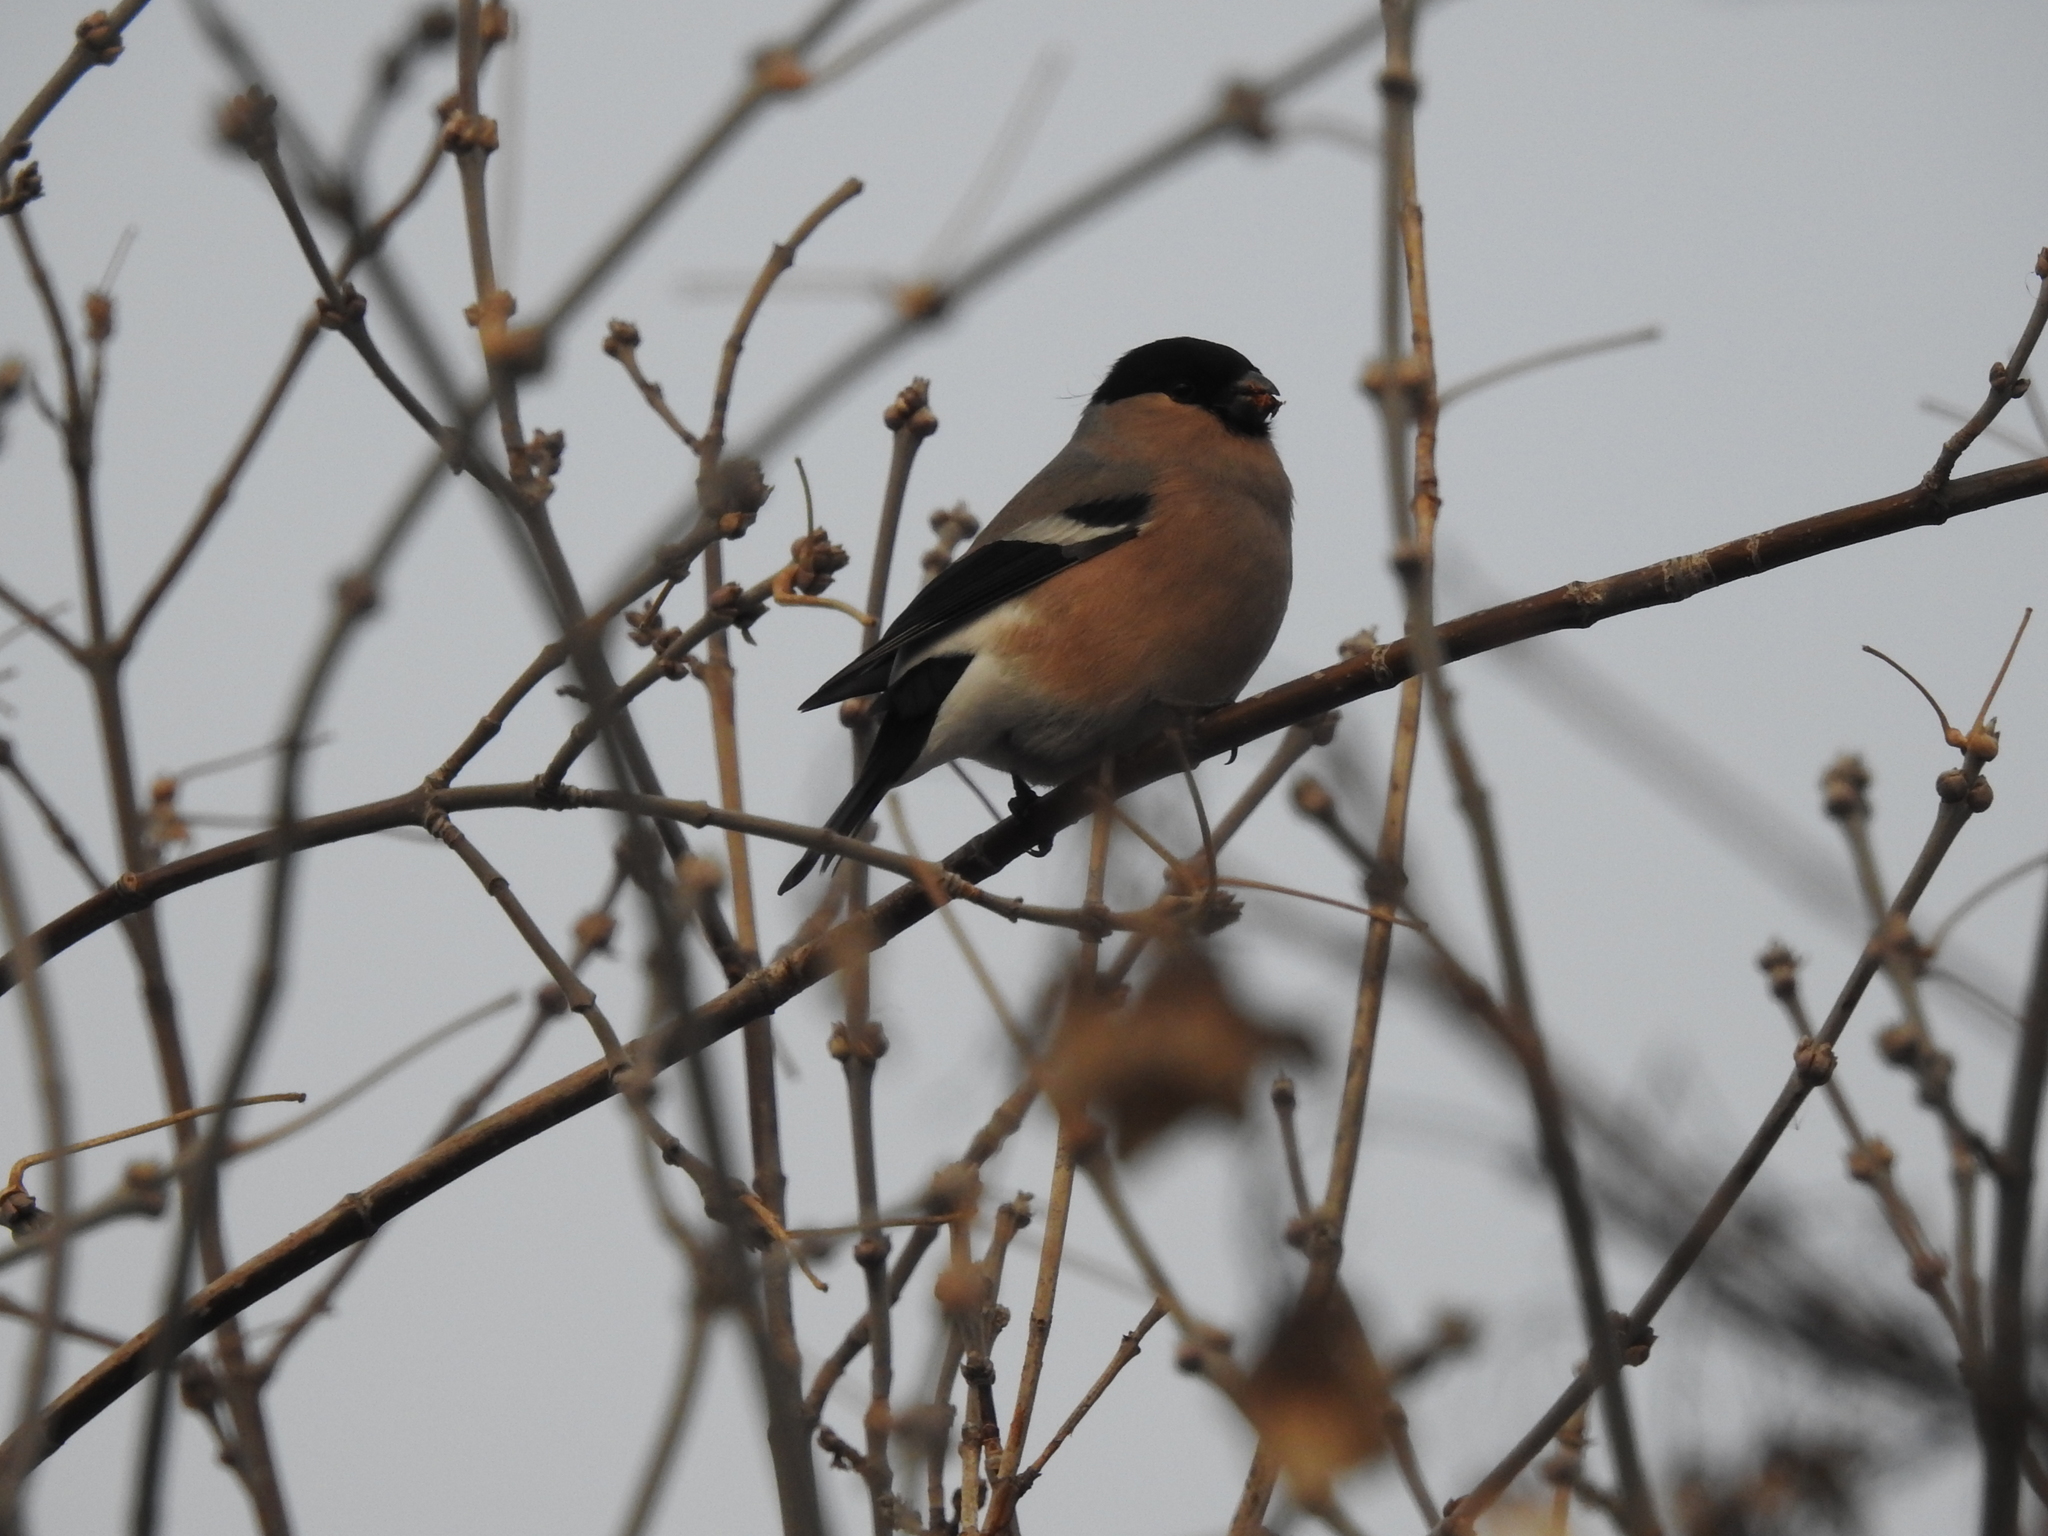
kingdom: Animalia
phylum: Chordata
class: Aves
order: Passeriformes
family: Fringillidae
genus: Pyrrhula
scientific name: Pyrrhula pyrrhula
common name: Eurasian bullfinch
